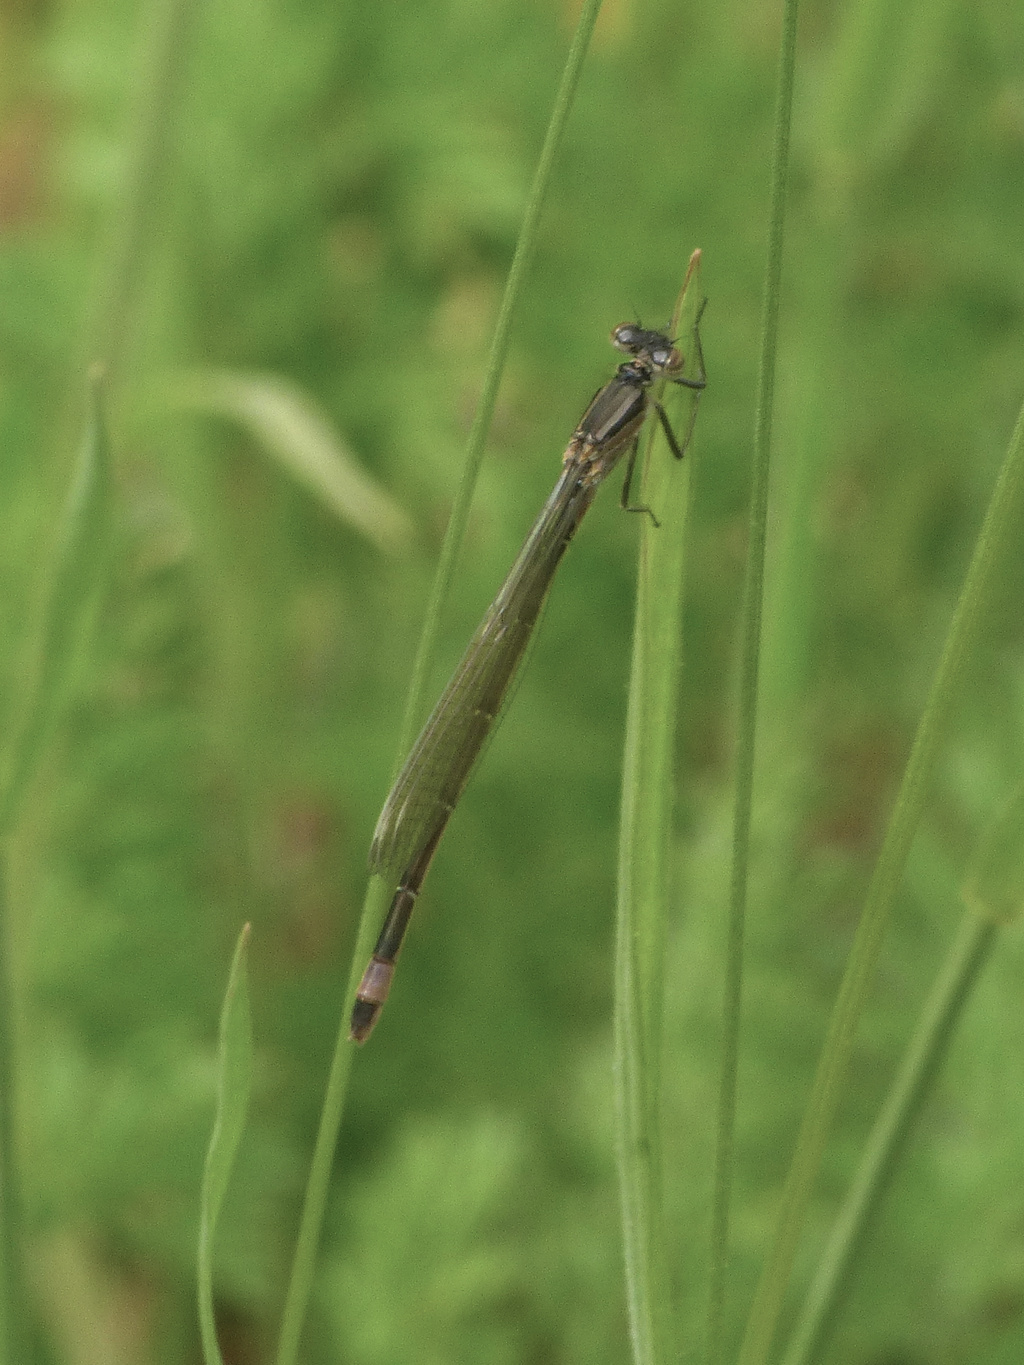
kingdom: Animalia
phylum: Arthropoda
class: Insecta
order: Odonata
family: Coenagrionidae
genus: Ischnura
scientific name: Ischnura elegans
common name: Blue-tailed damselfly
